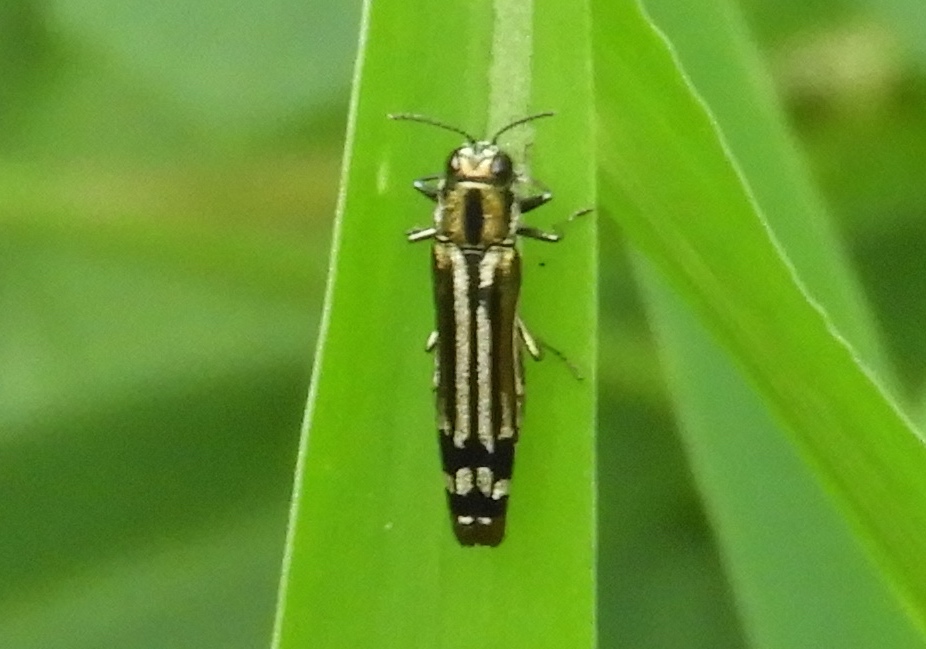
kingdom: Animalia
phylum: Arthropoda
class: Insecta
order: Coleoptera
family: Buprestidae
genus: Agrilus
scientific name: Agrilus catherinae
